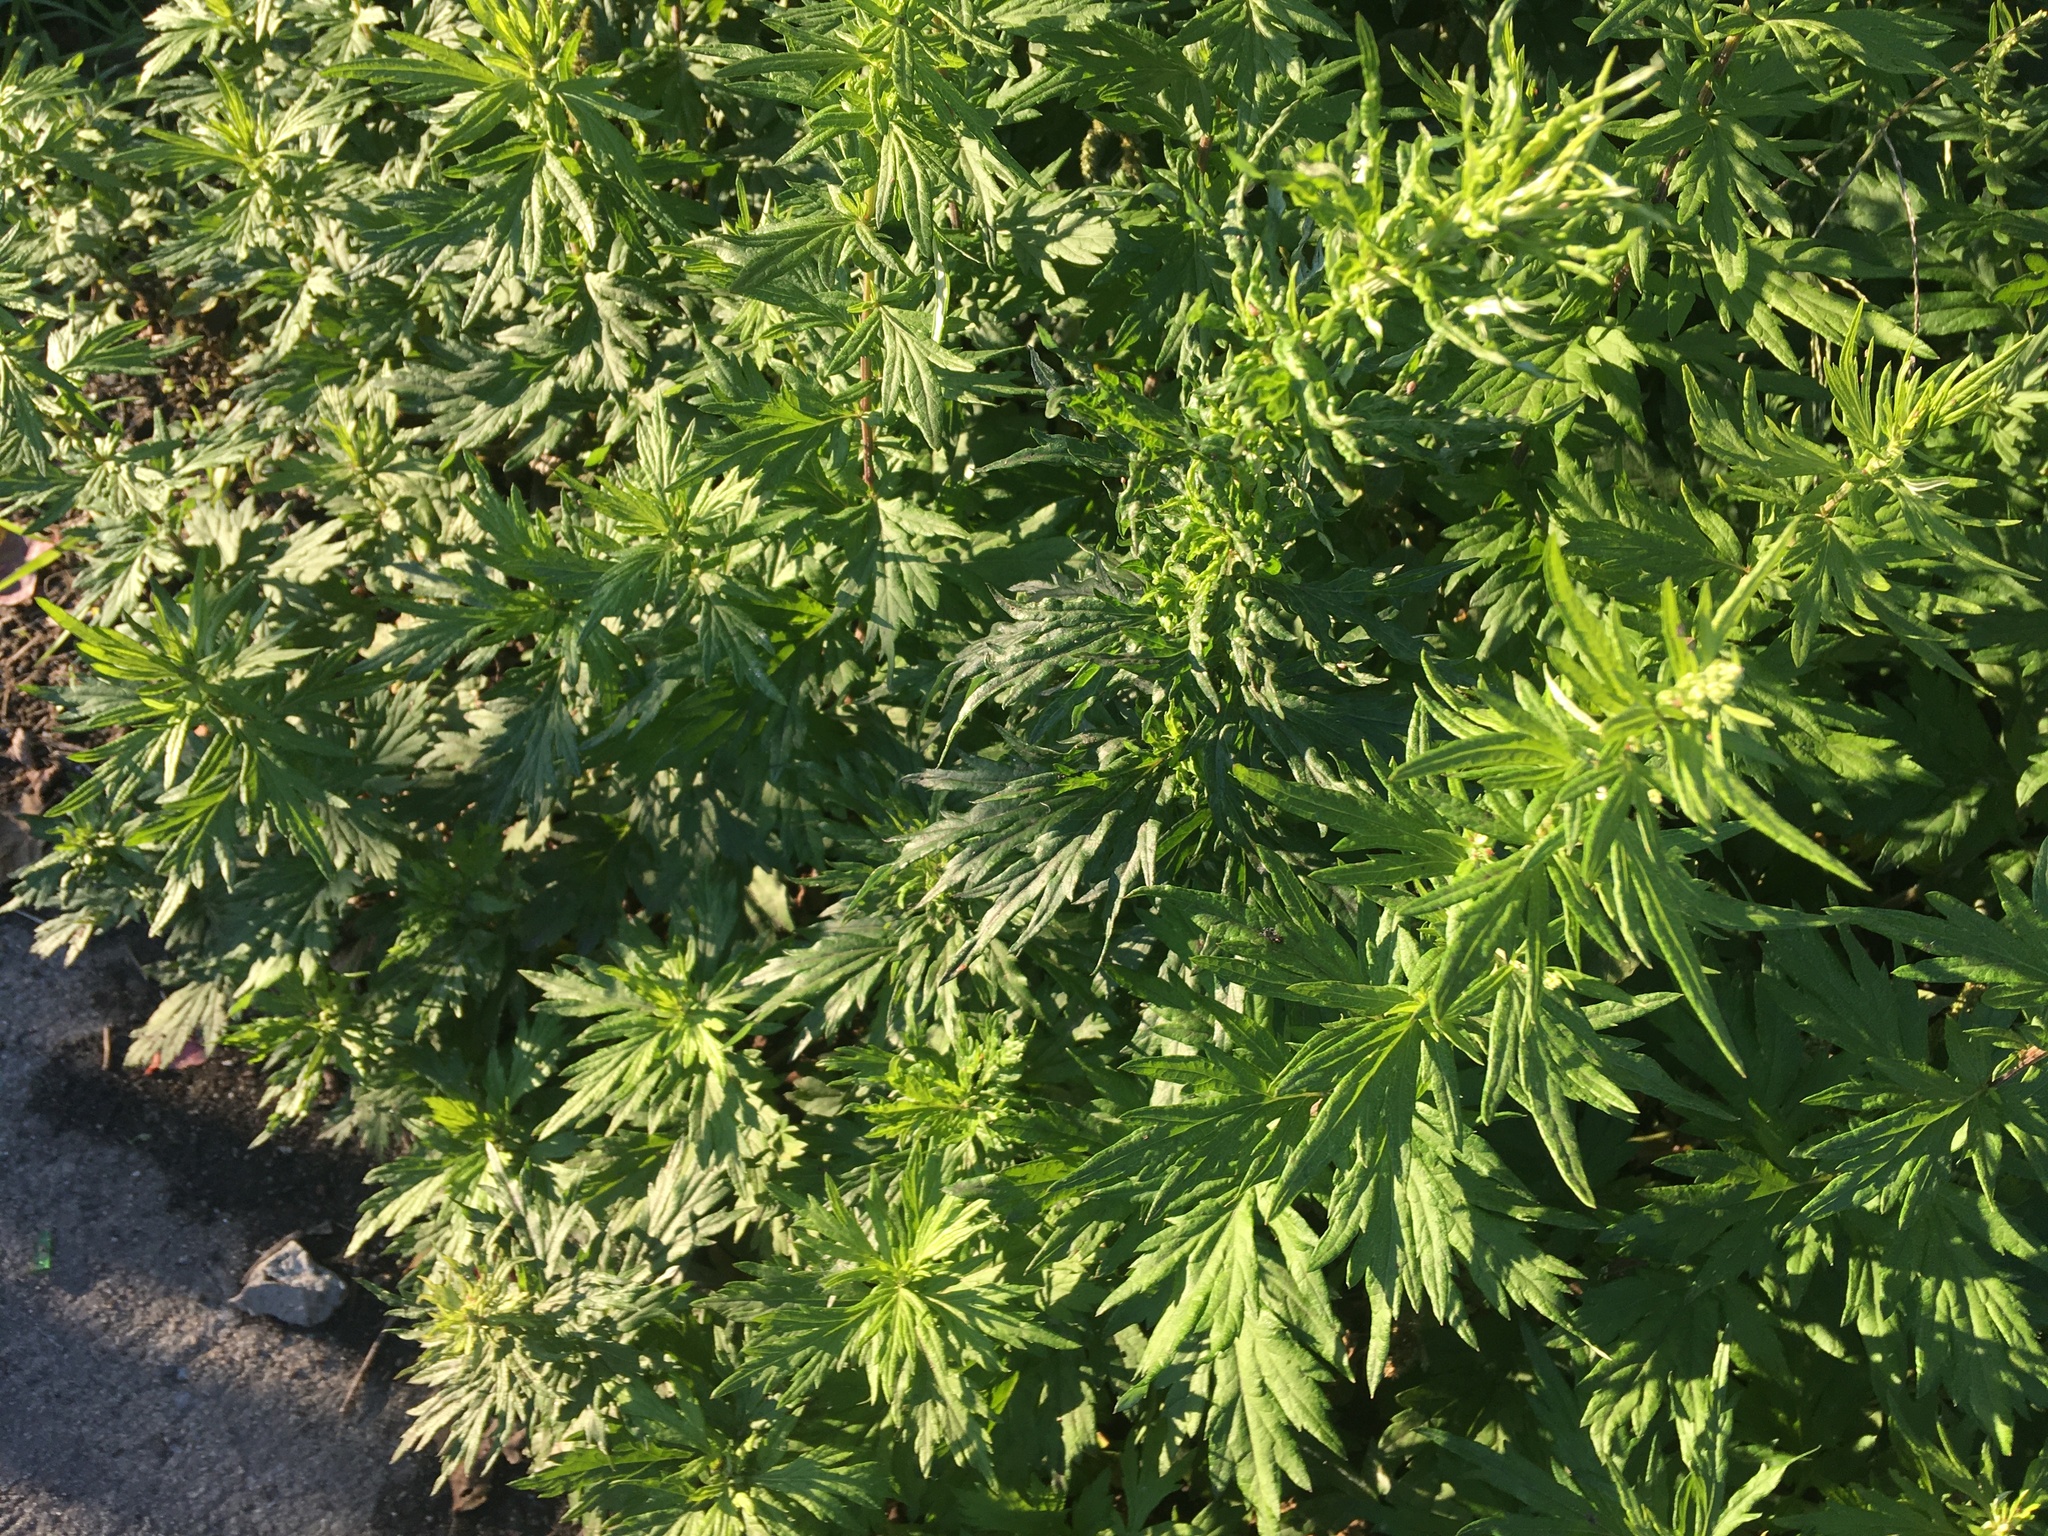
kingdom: Plantae
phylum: Tracheophyta
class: Magnoliopsida
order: Asterales
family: Asteraceae
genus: Artemisia
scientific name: Artemisia vulgaris
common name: Mugwort
